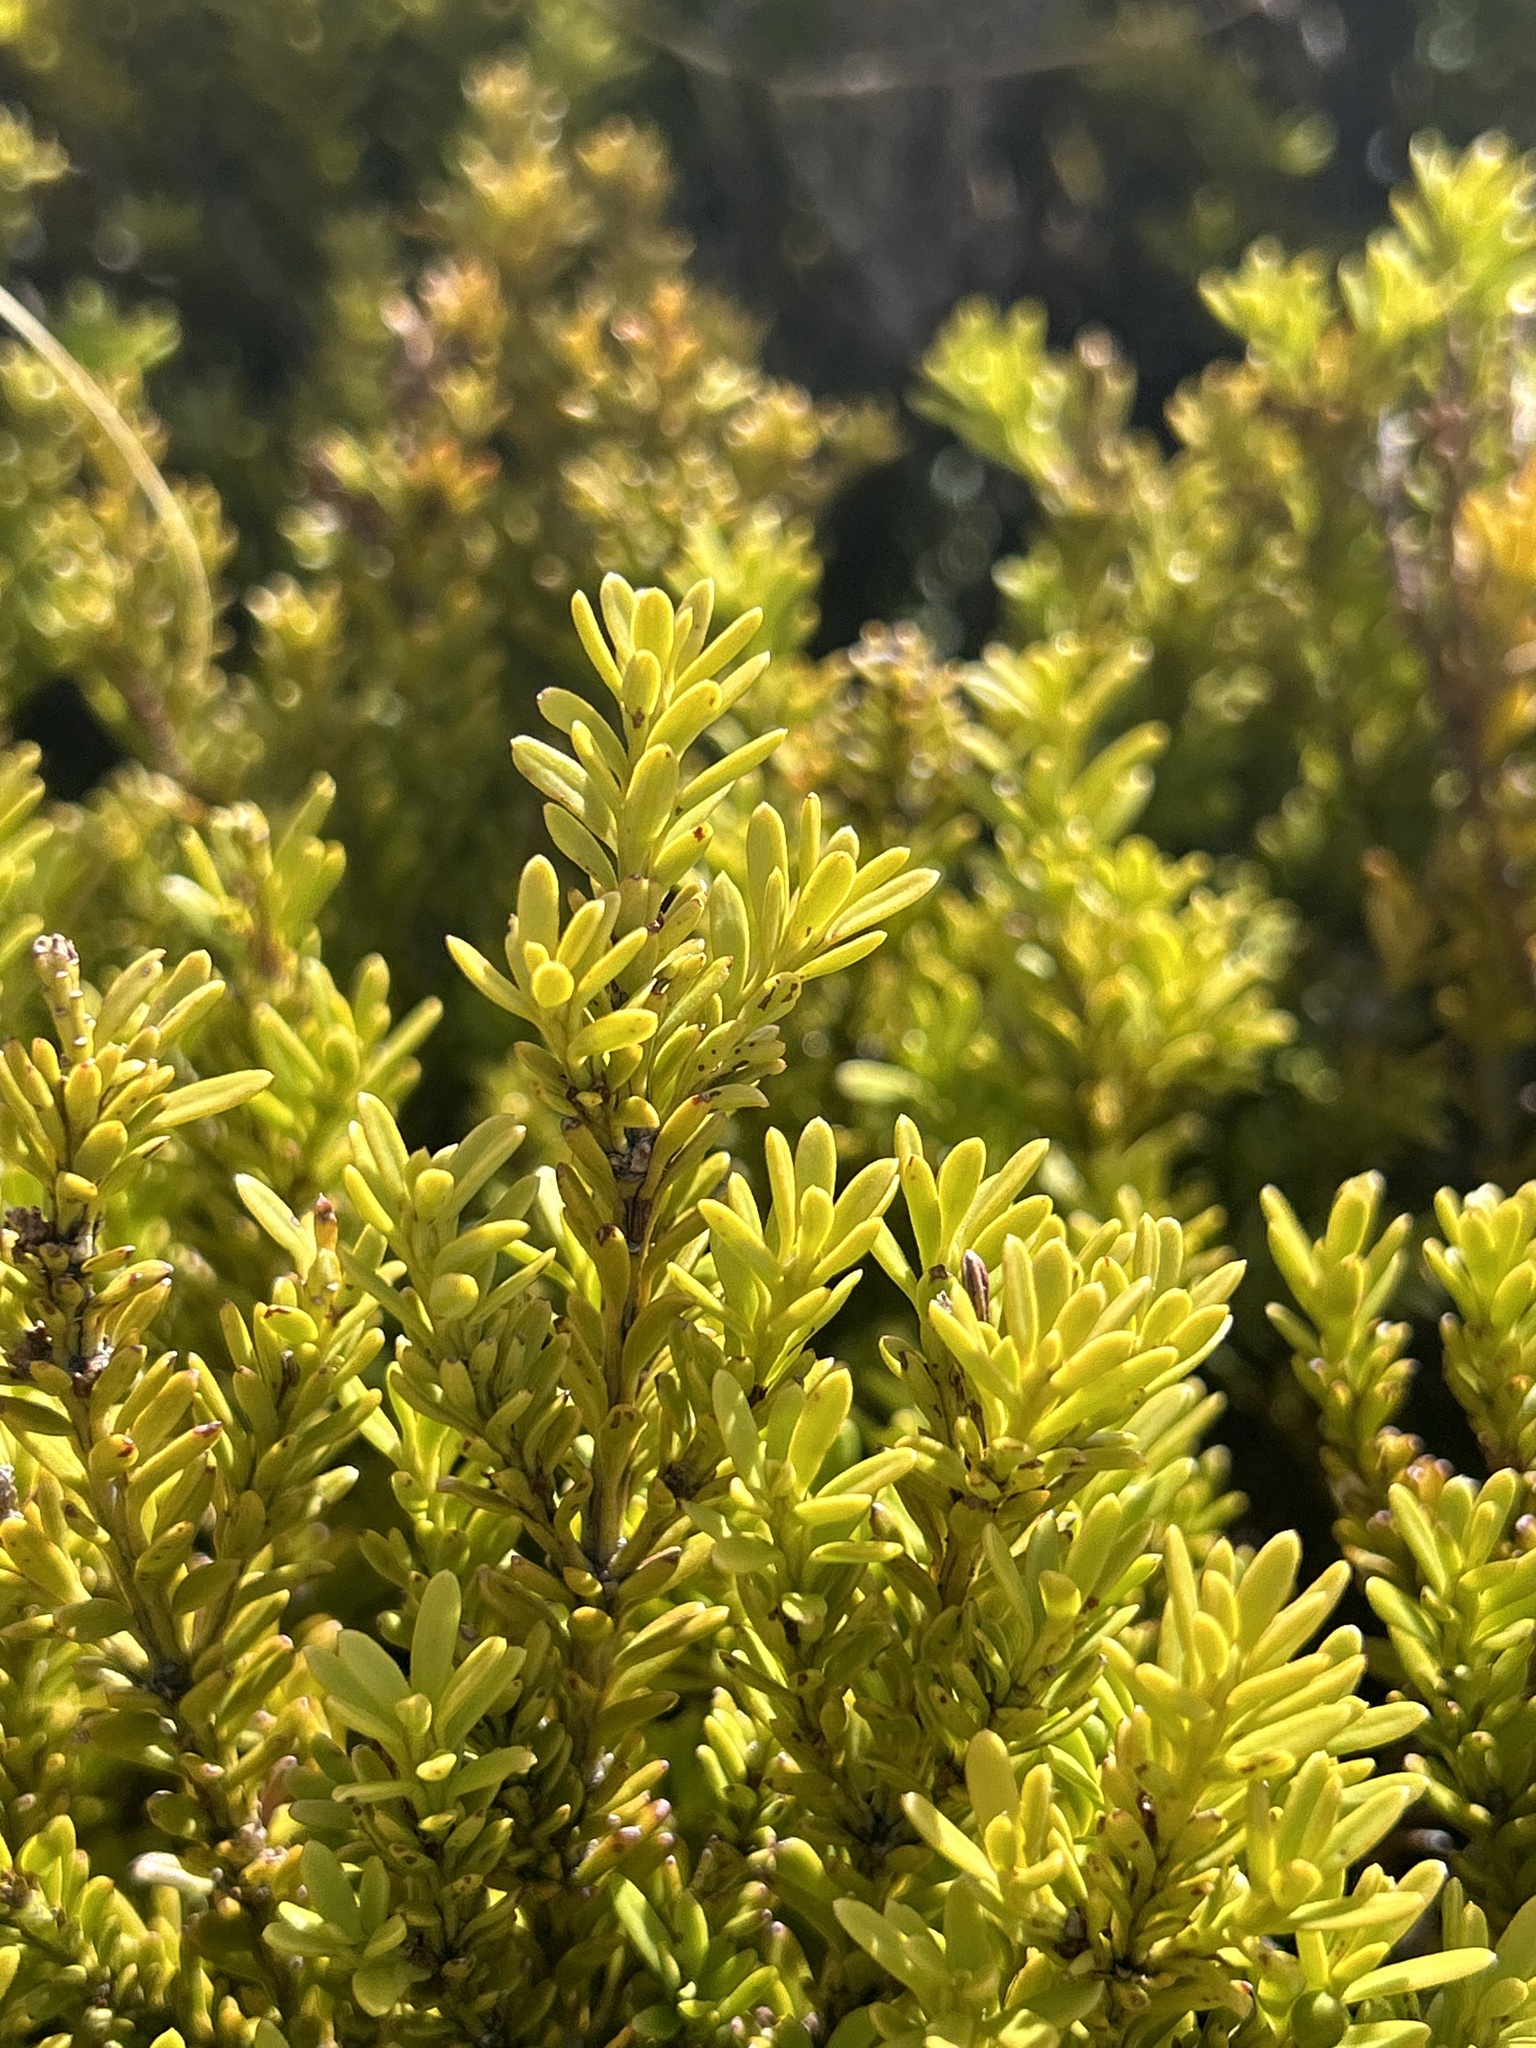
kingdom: Plantae
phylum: Tracheophyta
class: Pinopsida
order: Pinales
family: Podocarpaceae
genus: Podocarpus
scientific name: Podocarpus nivalis
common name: Alpine totara
